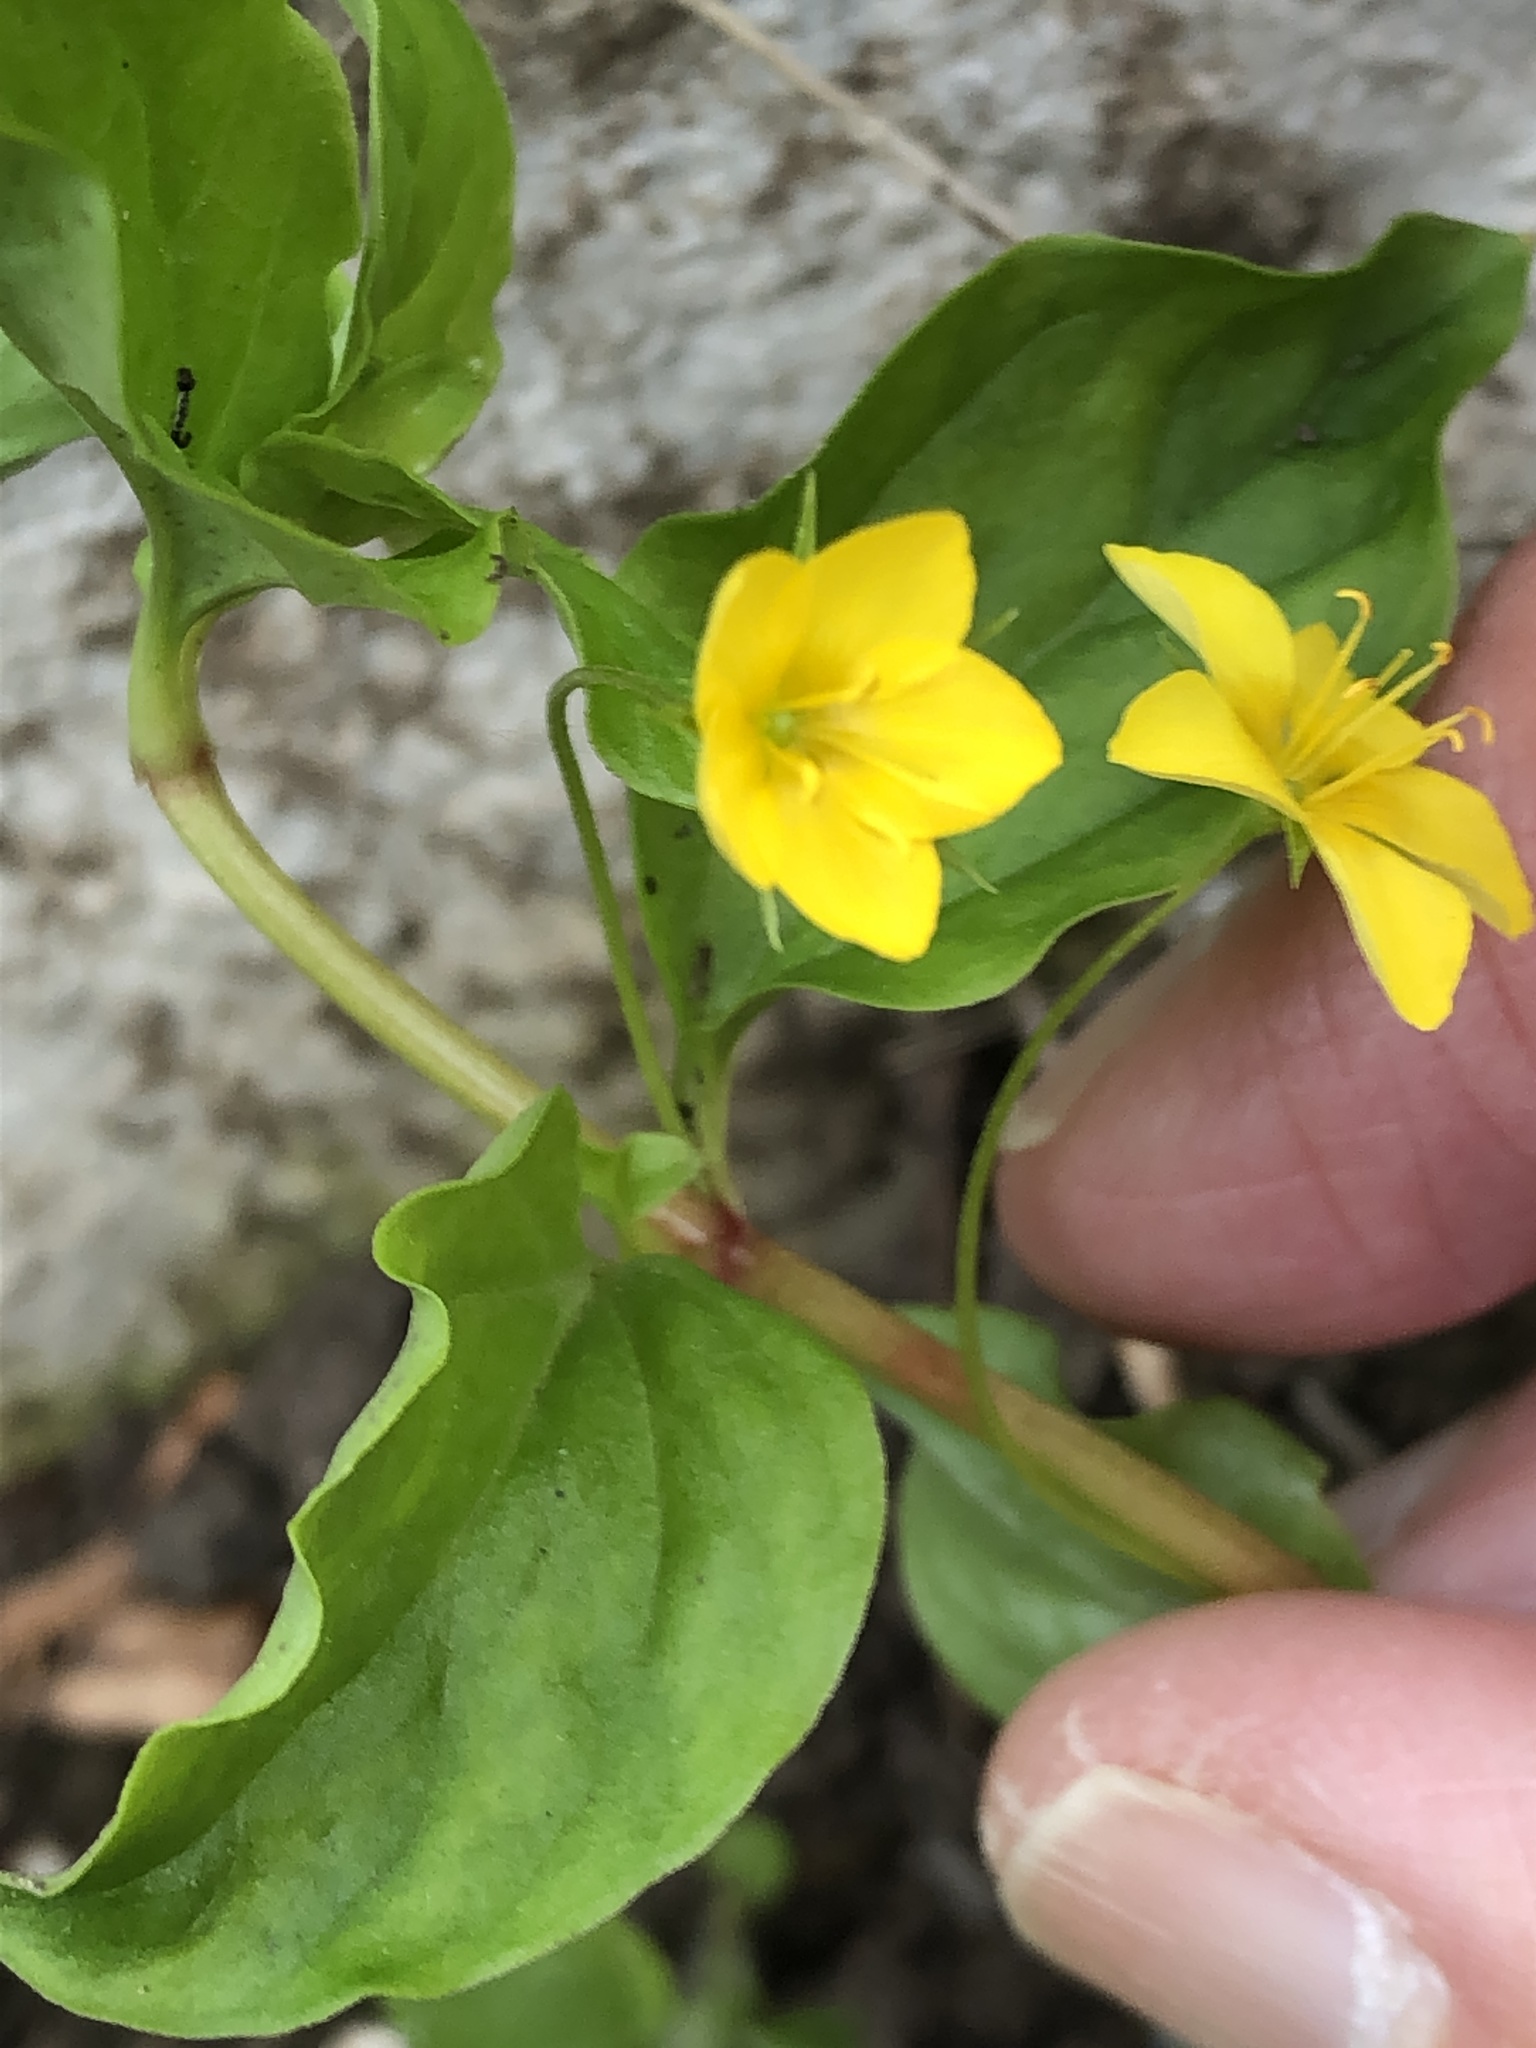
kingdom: Plantae
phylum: Tracheophyta
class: Magnoliopsida
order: Ericales
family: Primulaceae
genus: Lysimachia
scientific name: Lysimachia nemorum
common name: Yellow pimpernel
